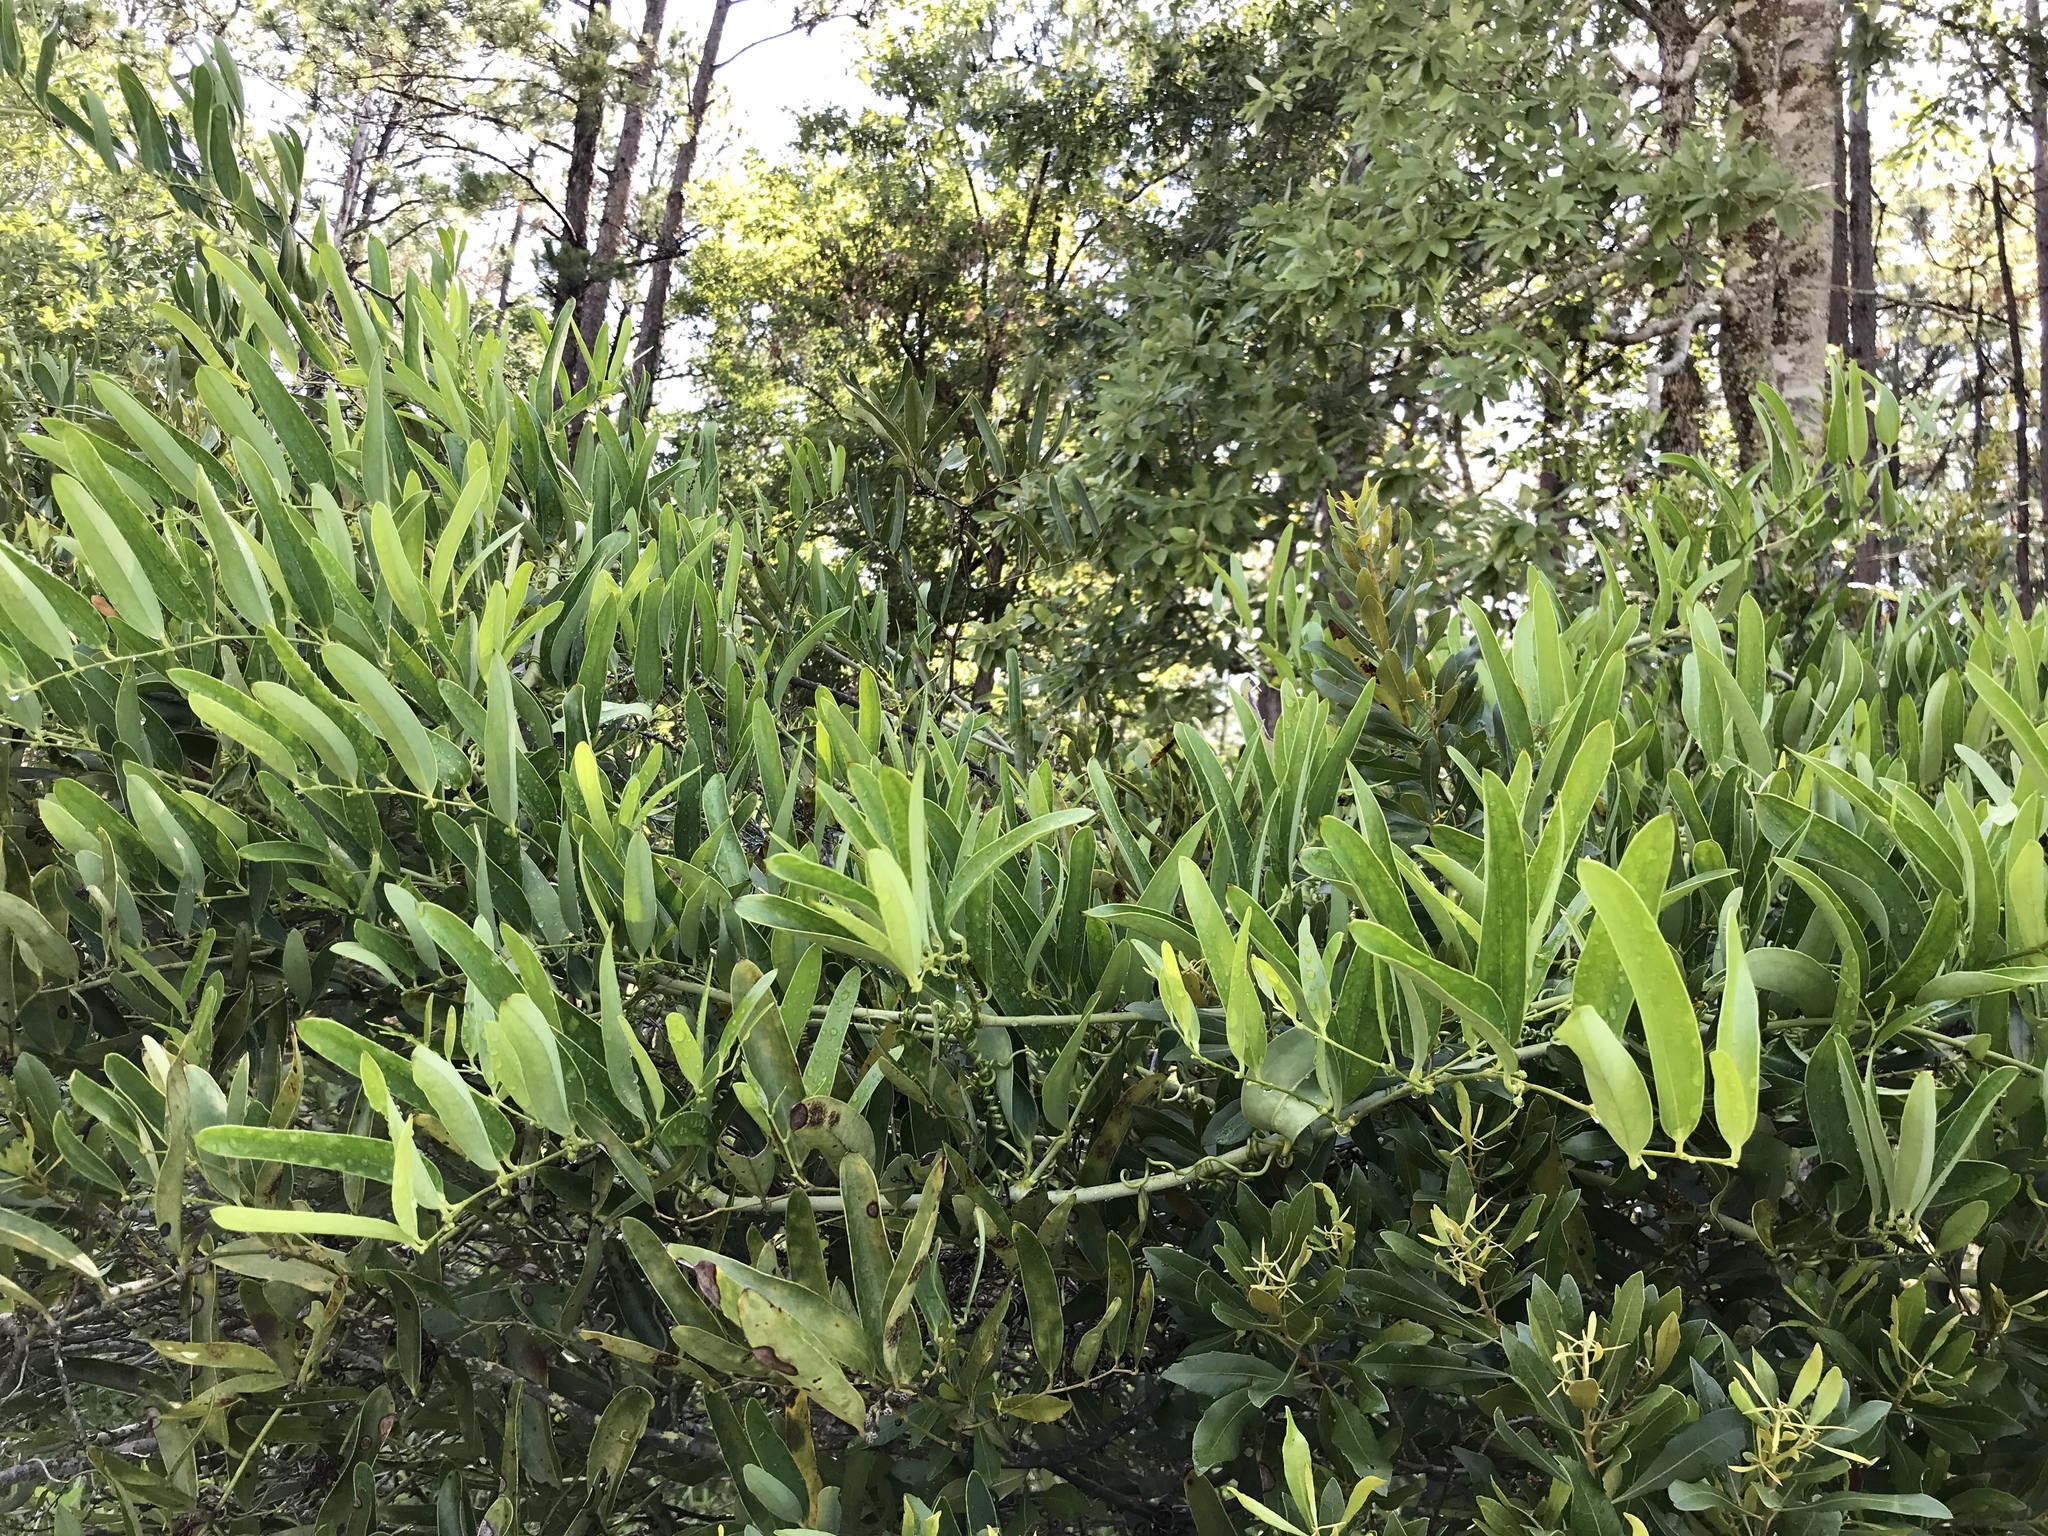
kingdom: Plantae
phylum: Tracheophyta
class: Liliopsida
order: Liliales
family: Smilacaceae
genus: Smilax
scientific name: Smilax laurifolia
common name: Bamboovine
